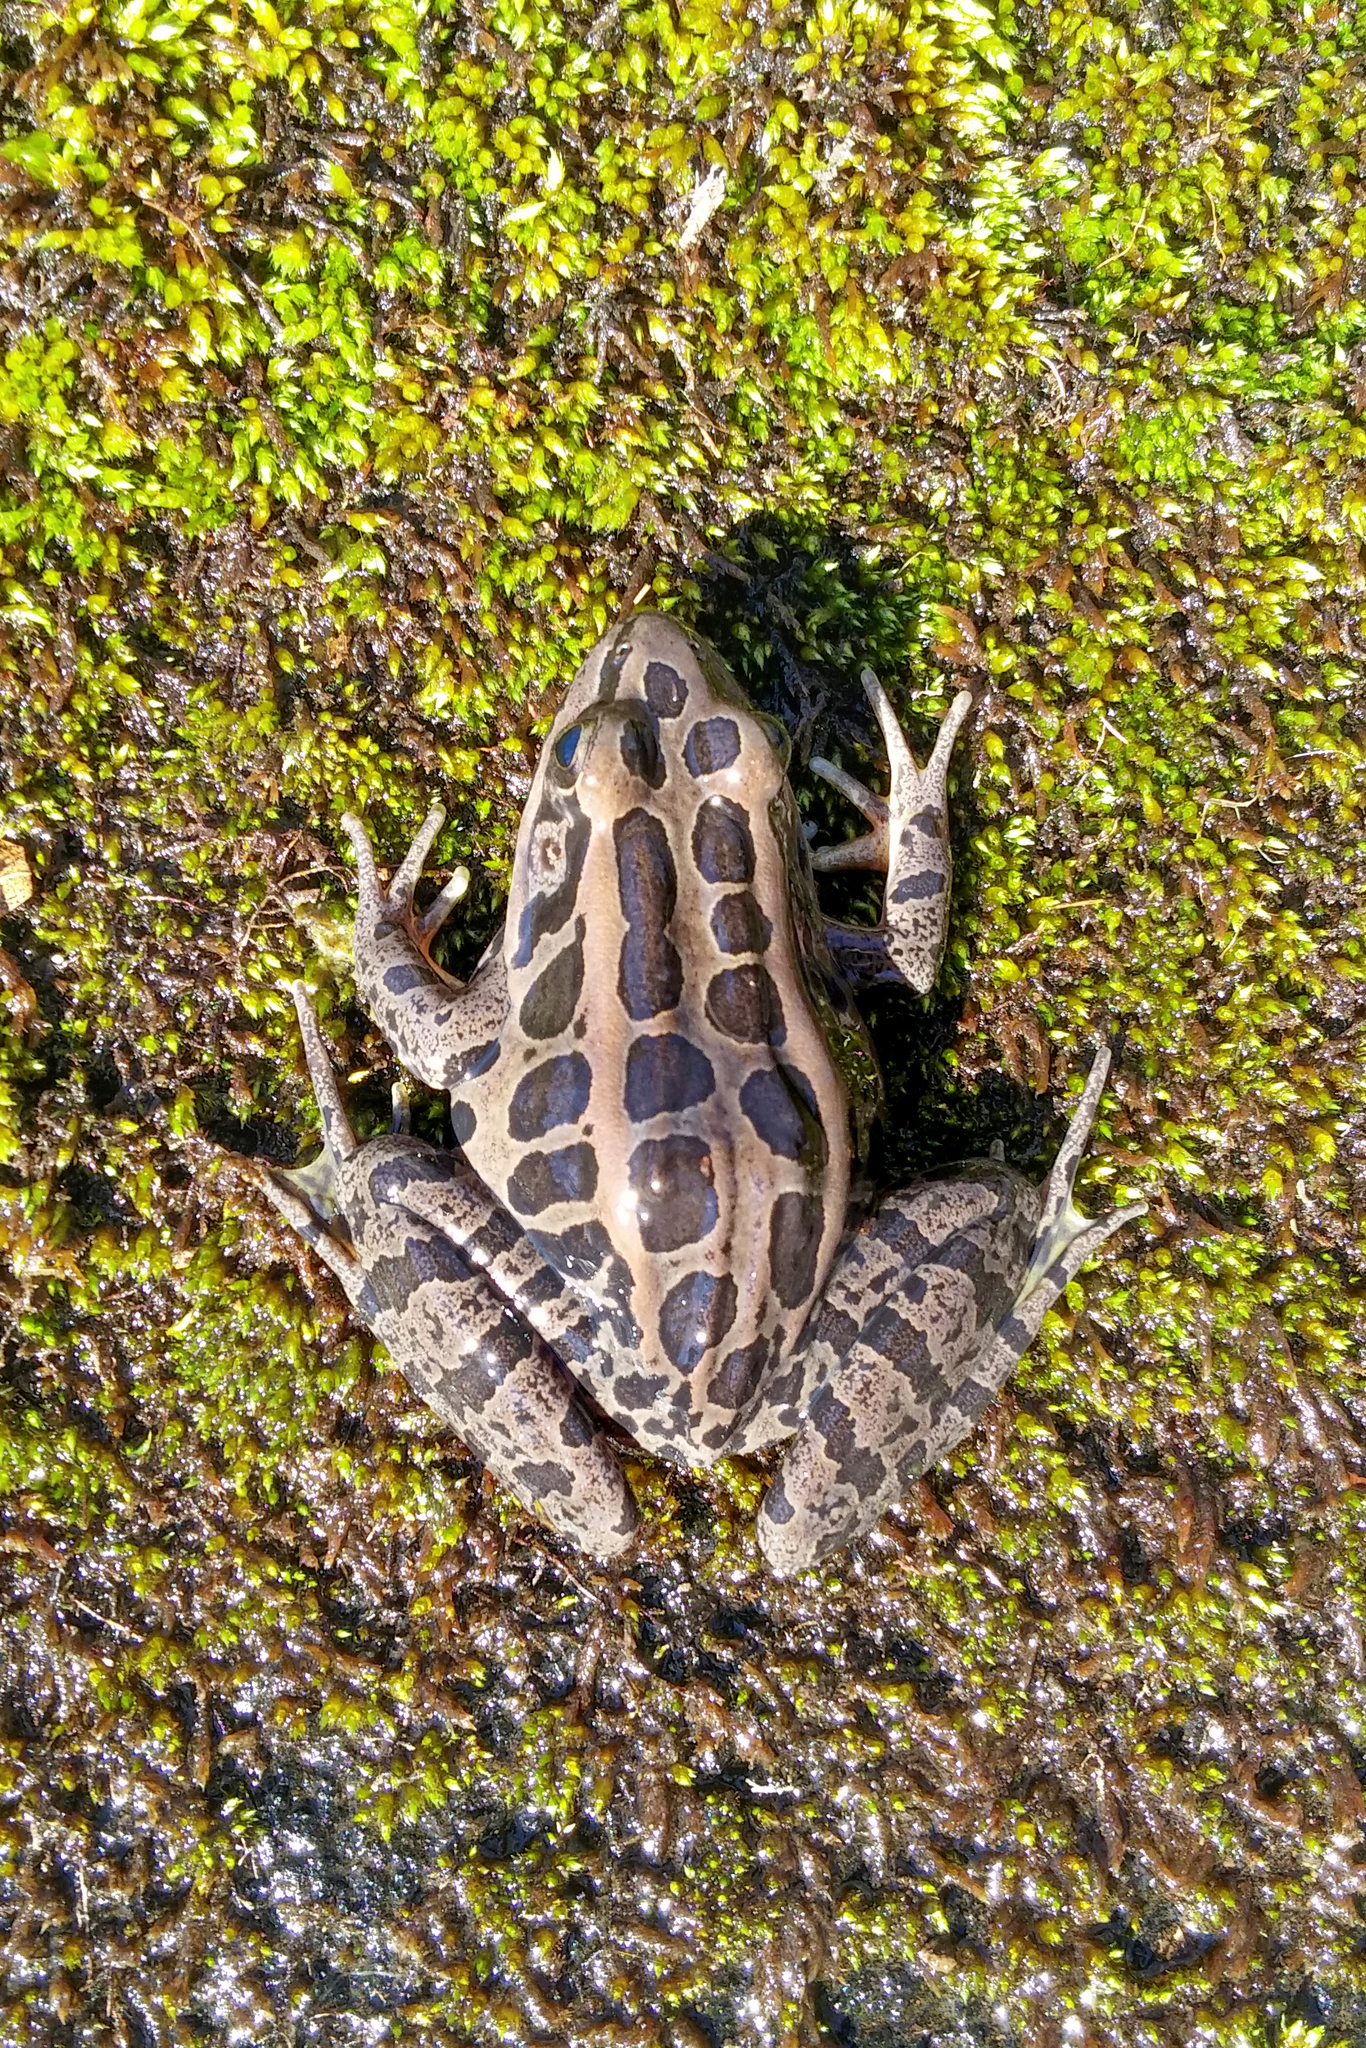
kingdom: Animalia
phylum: Chordata
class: Amphibia
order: Anura
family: Ranidae
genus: Lithobates
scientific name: Lithobates palustris
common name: Pickerel frog
